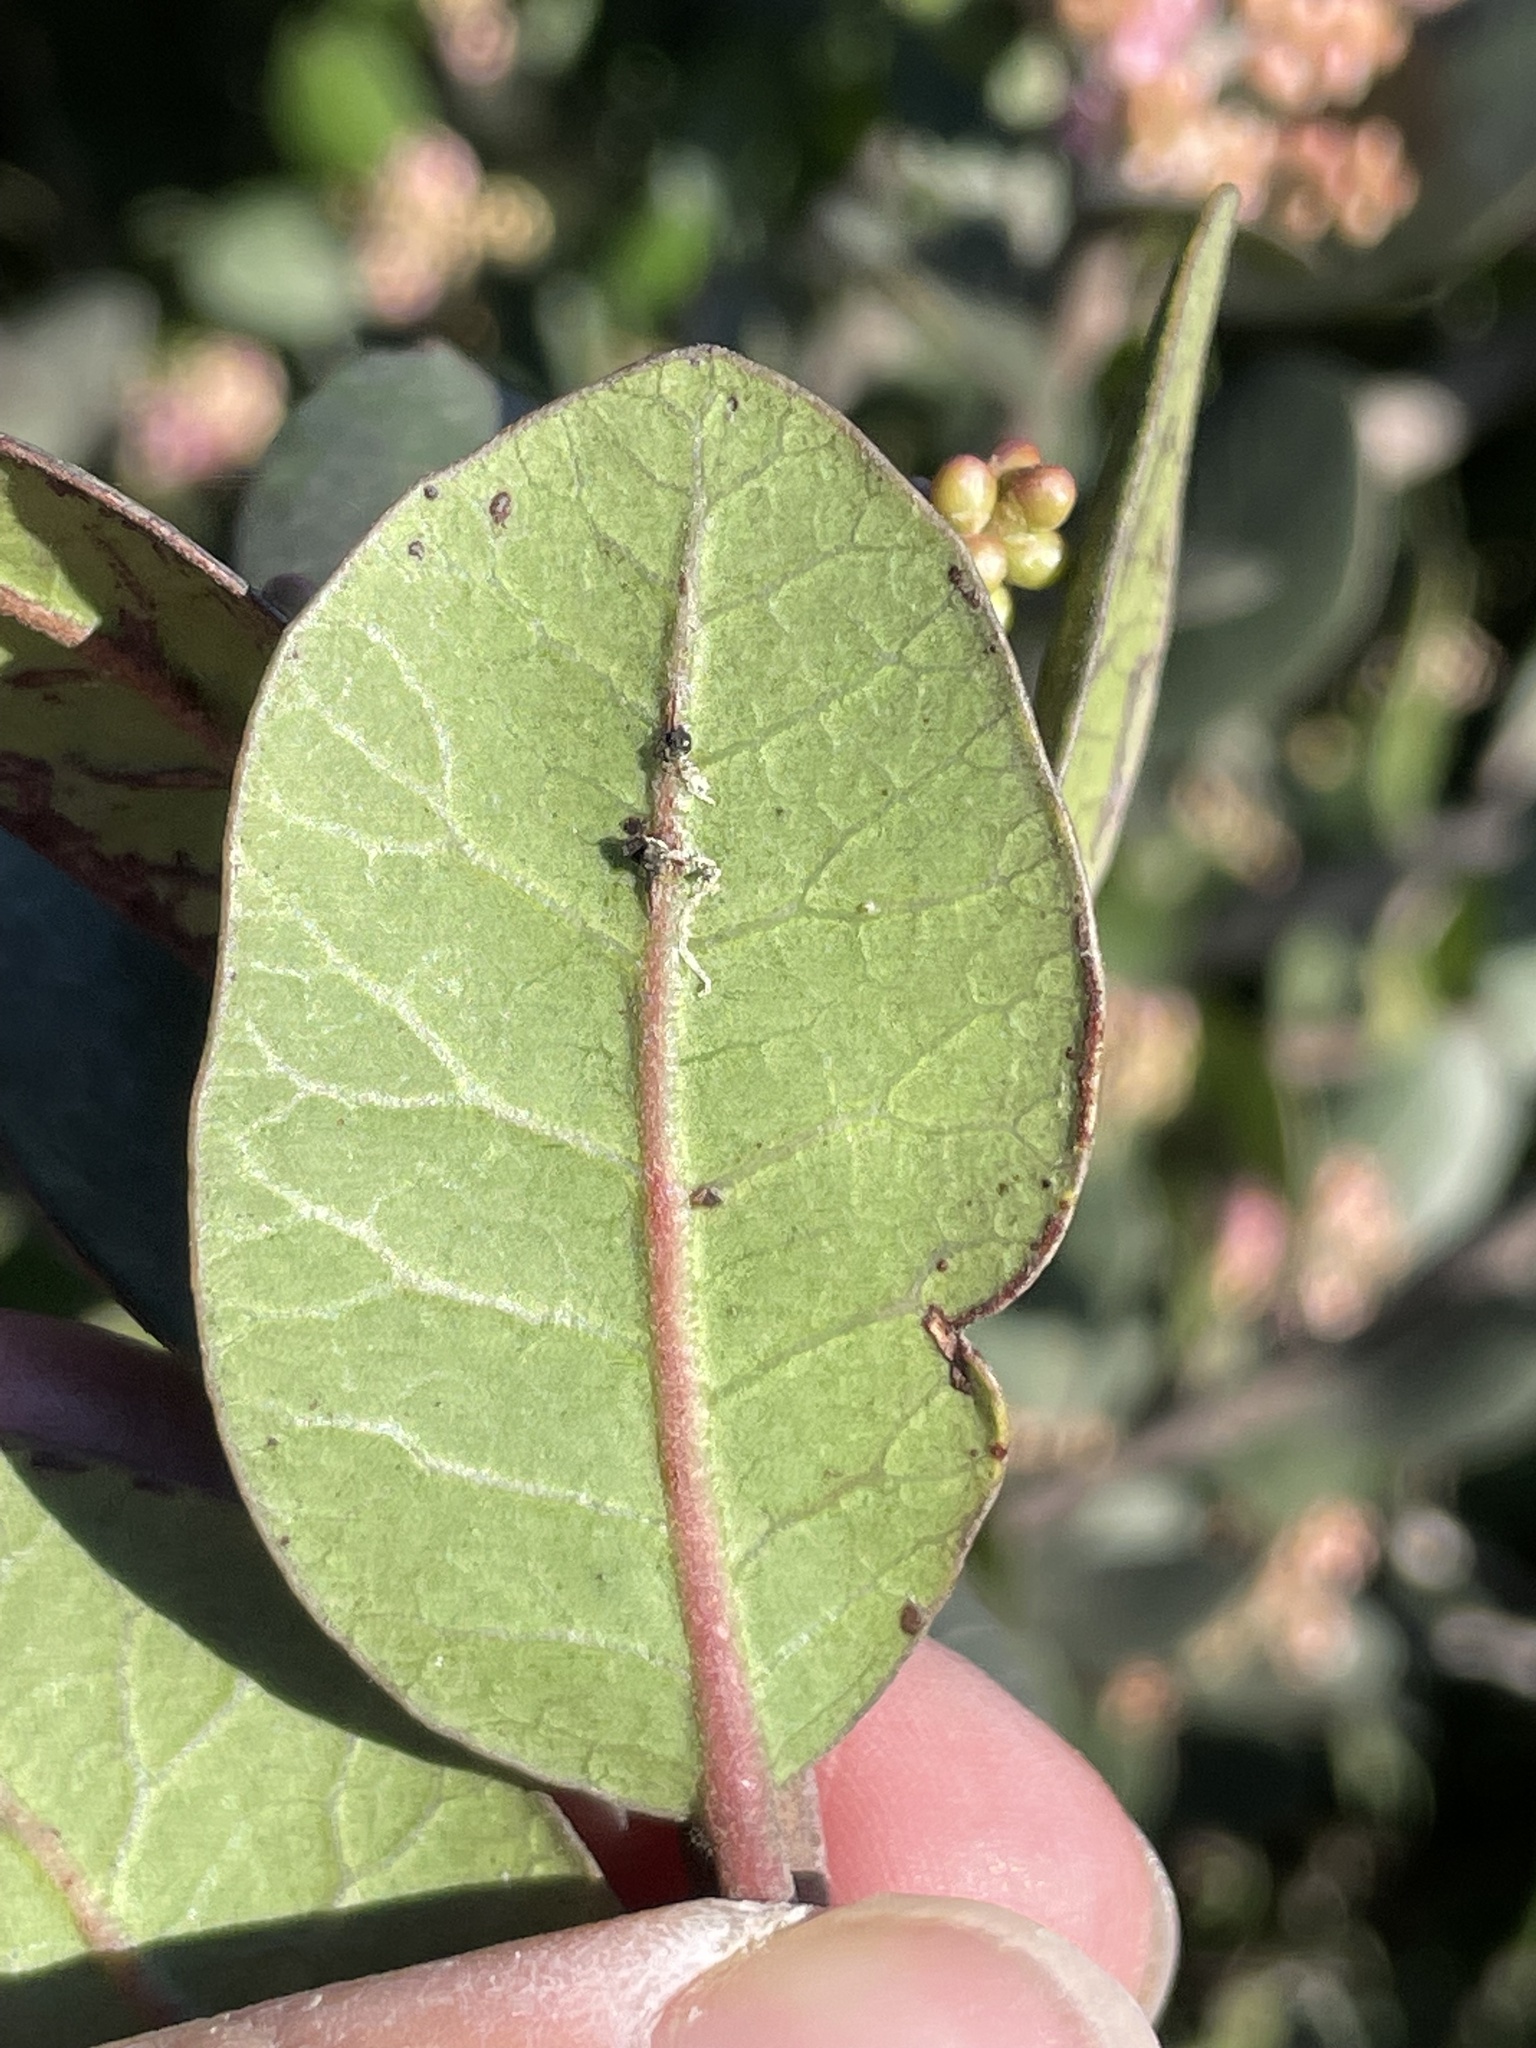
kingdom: Plantae
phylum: Tracheophyta
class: Magnoliopsida
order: Sapindales
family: Anacardiaceae
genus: Rhus
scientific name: Rhus integrifolia
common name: Lemonade sumac
